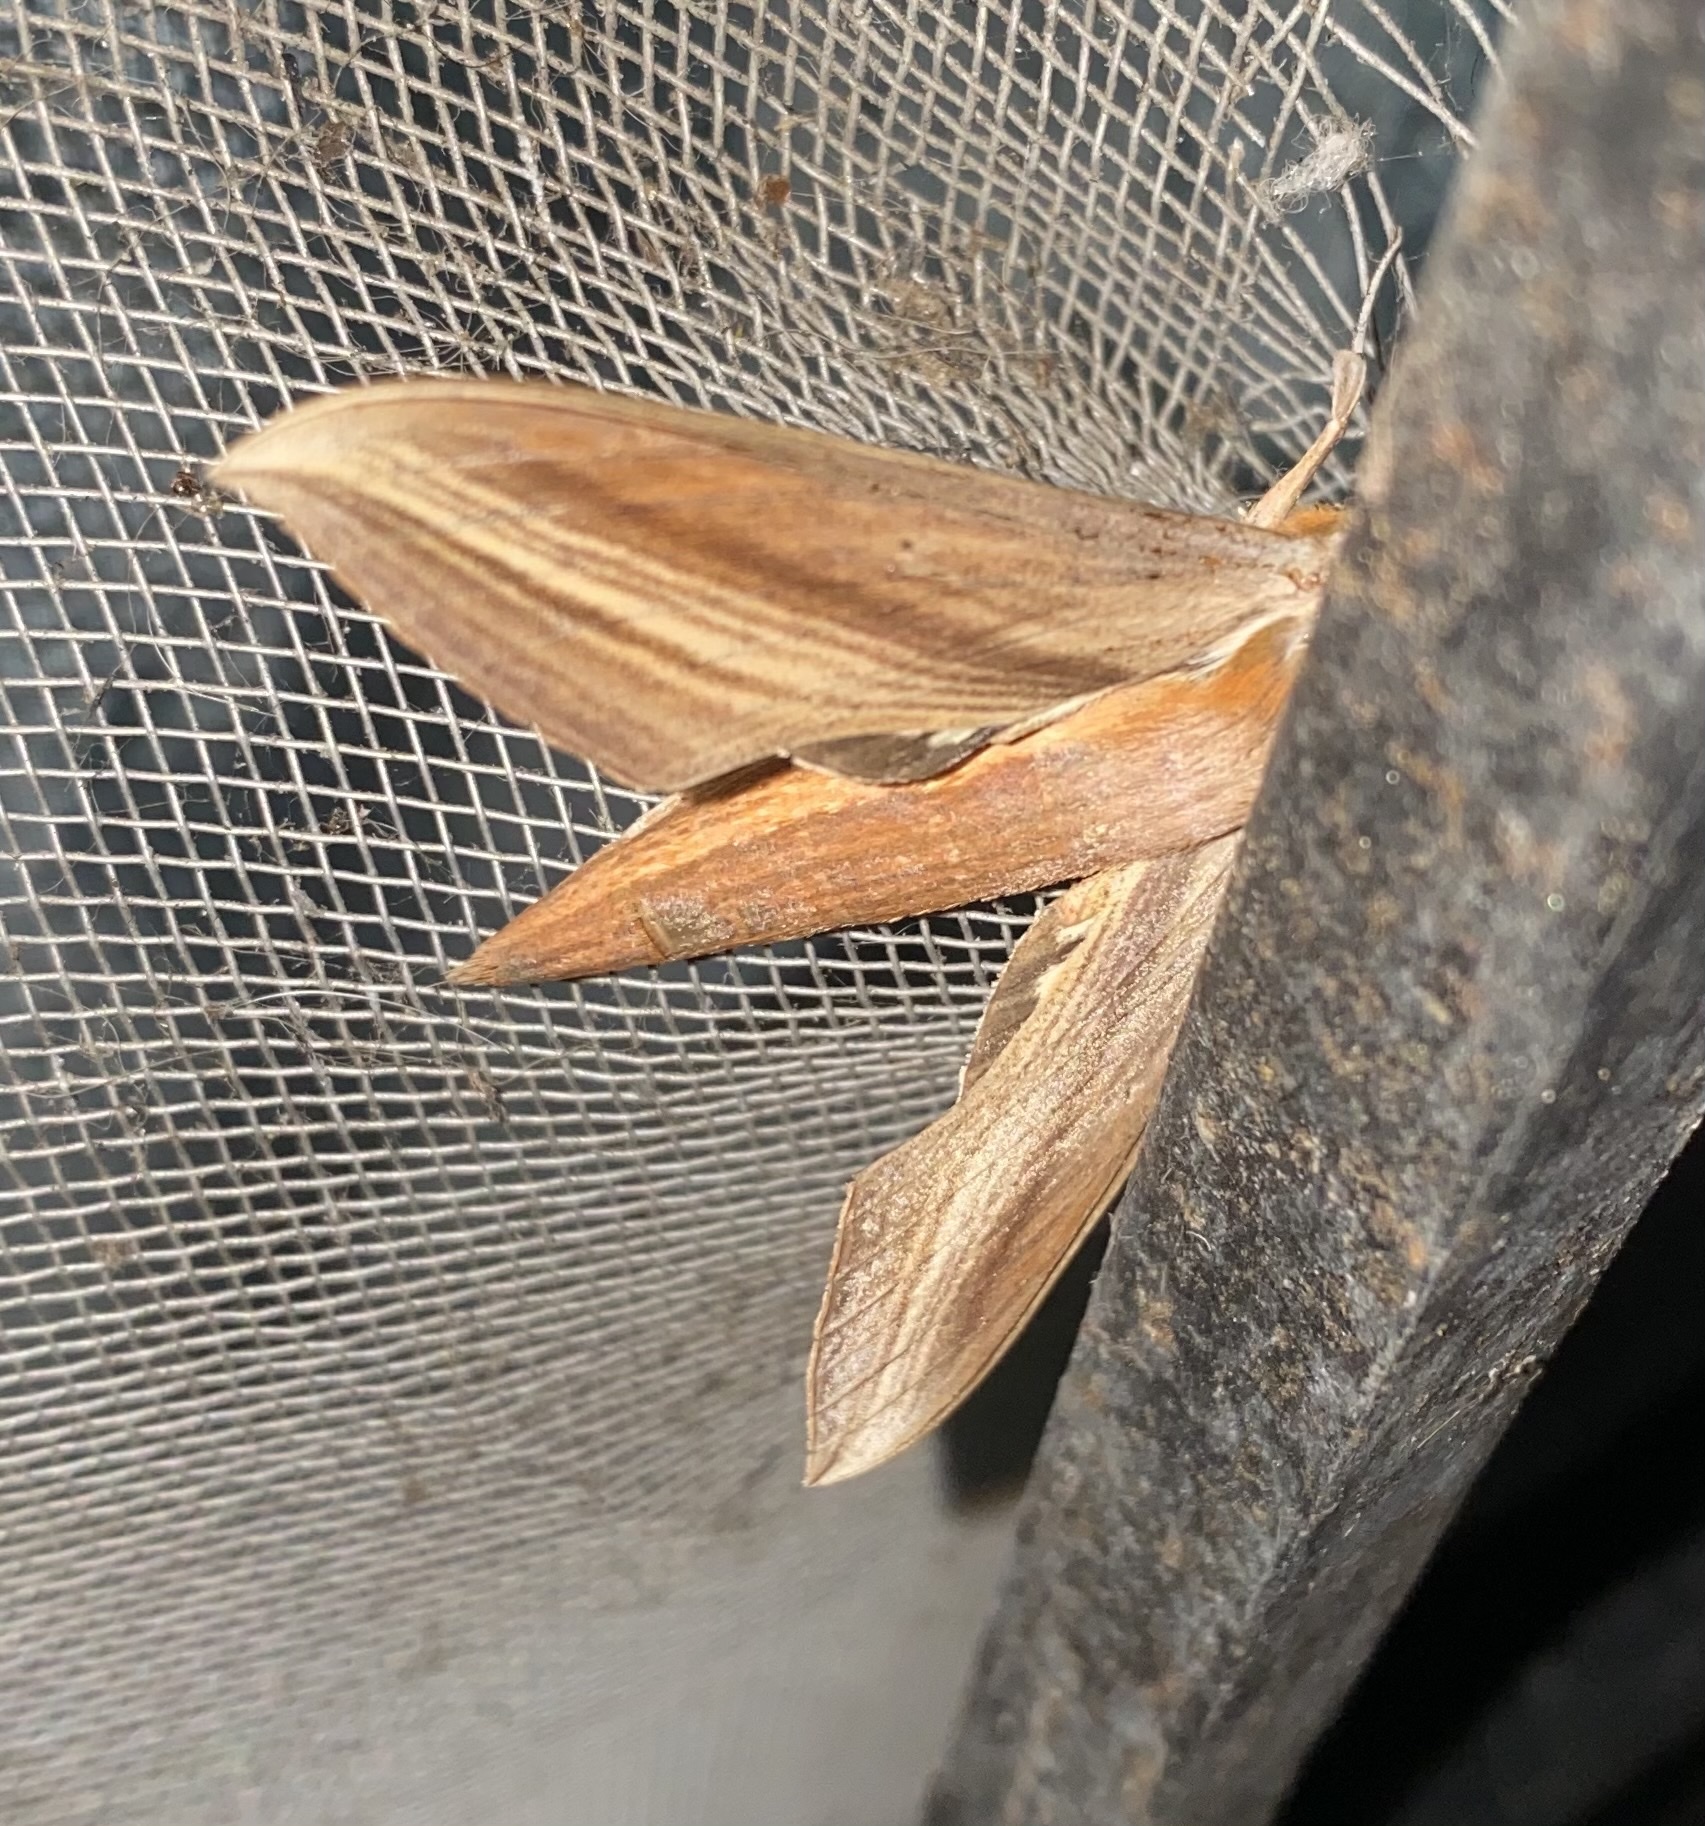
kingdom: Animalia
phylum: Arthropoda
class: Insecta
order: Lepidoptera
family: Sphingidae
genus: Xylophanes
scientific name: Xylophanes tersa
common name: Tersa sphinx
